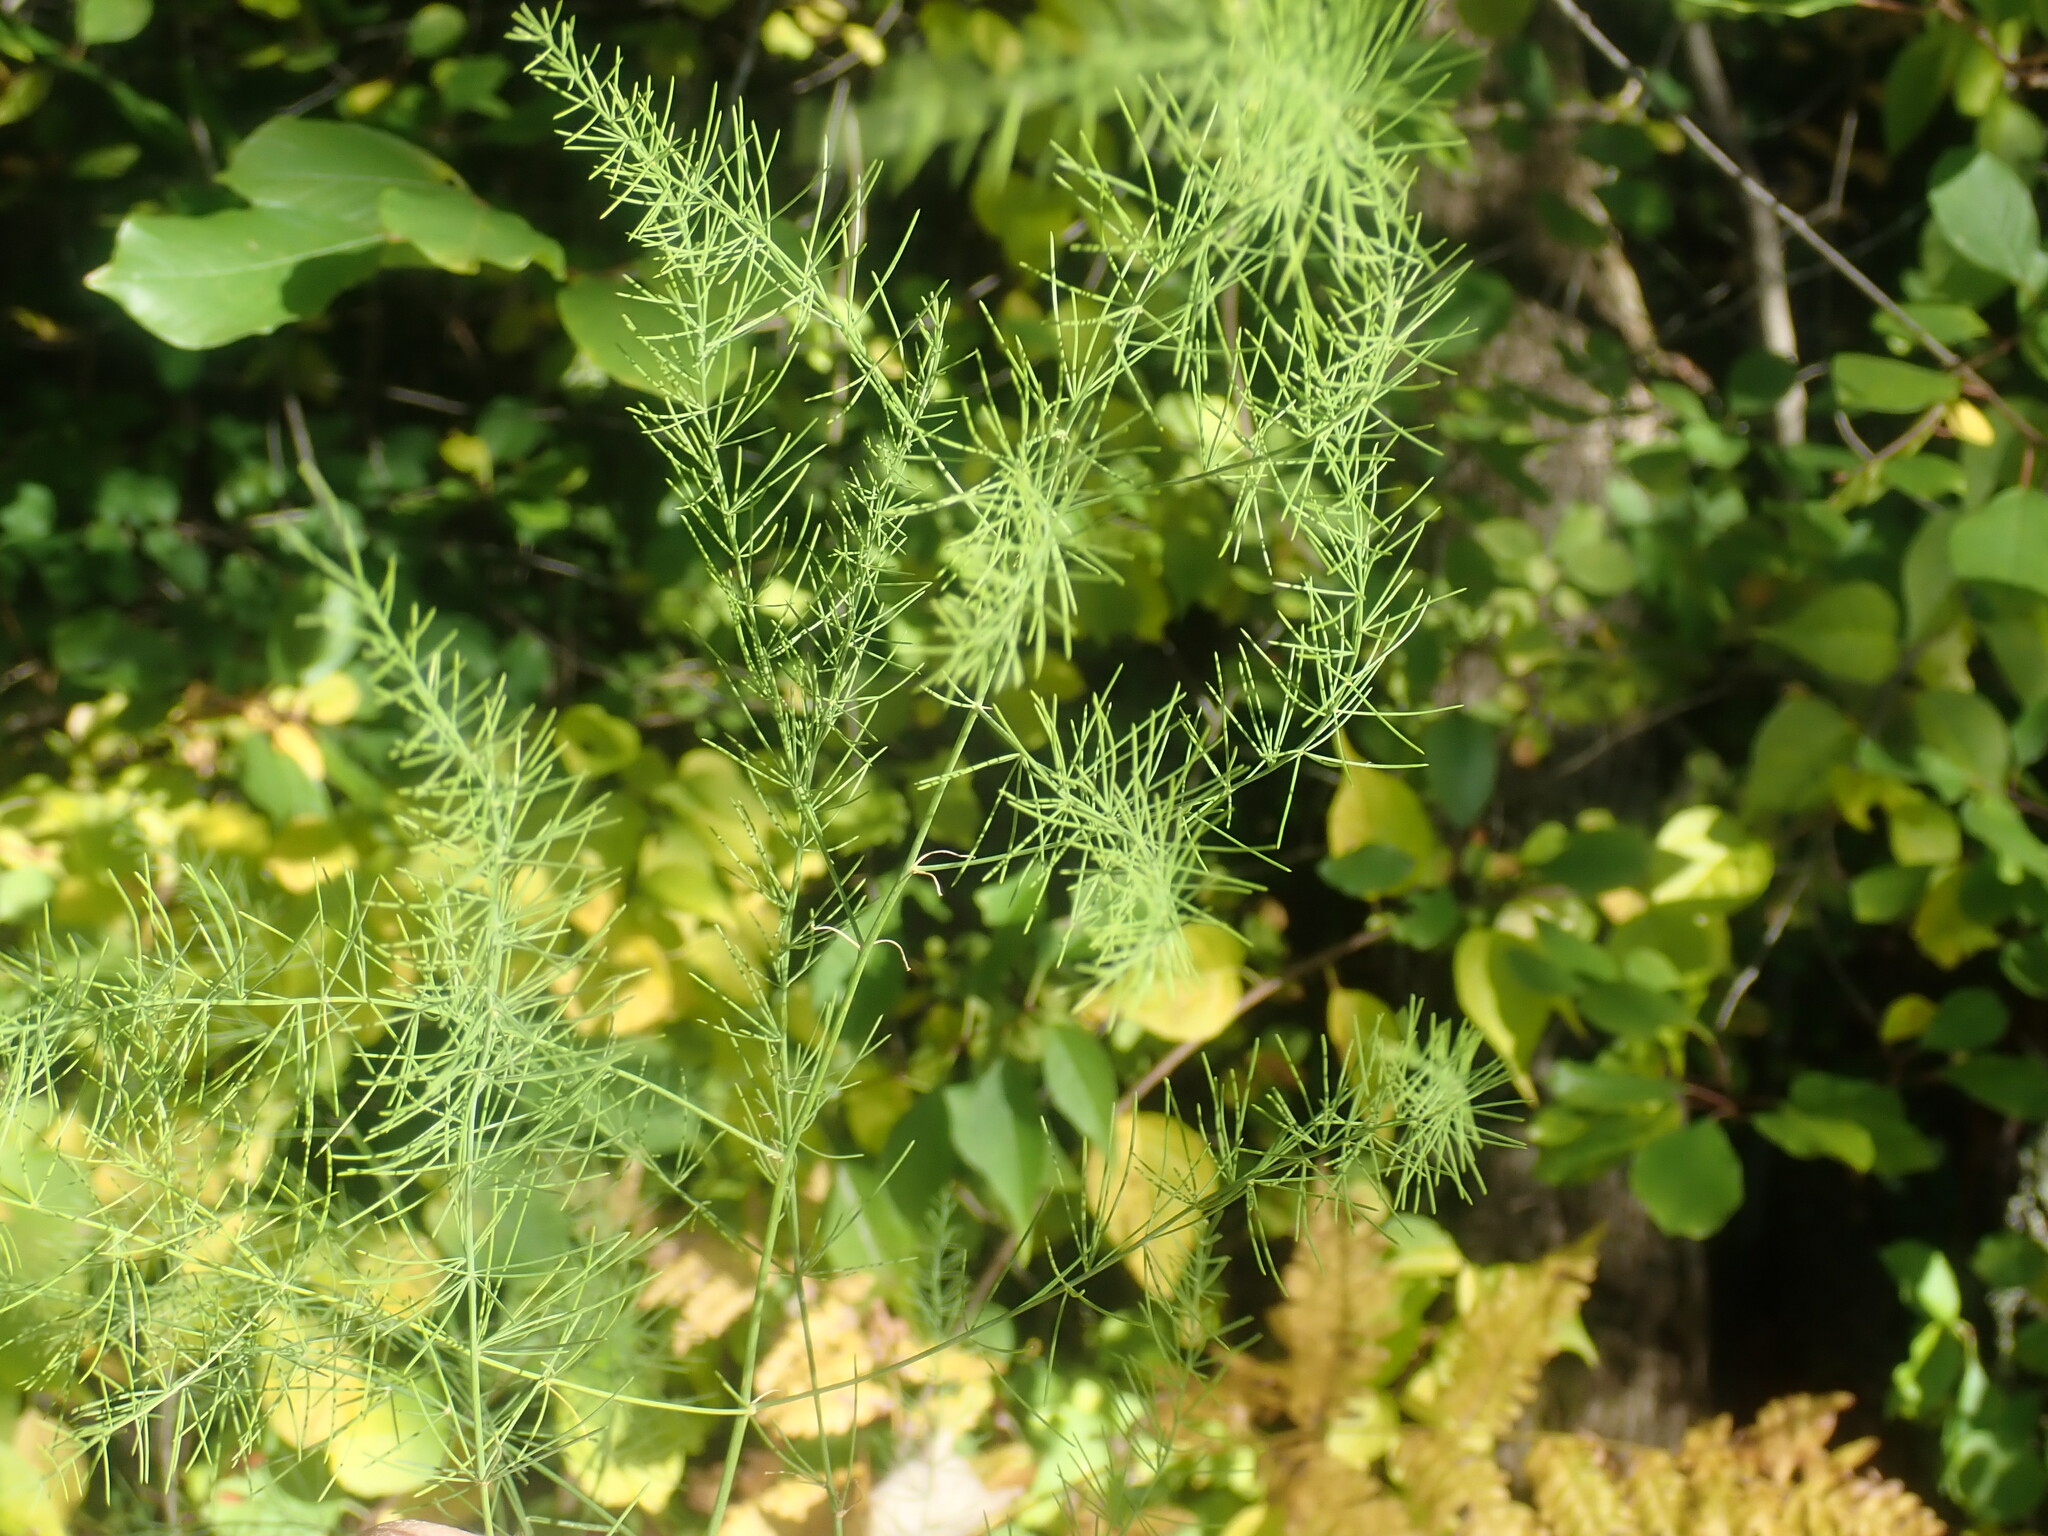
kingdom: Plantae
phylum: Tracheophyta
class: Liliopsida
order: Asparagales
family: Asparagaceae
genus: Asparagus
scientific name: Asparagus officinalis
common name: Garden asparagus
